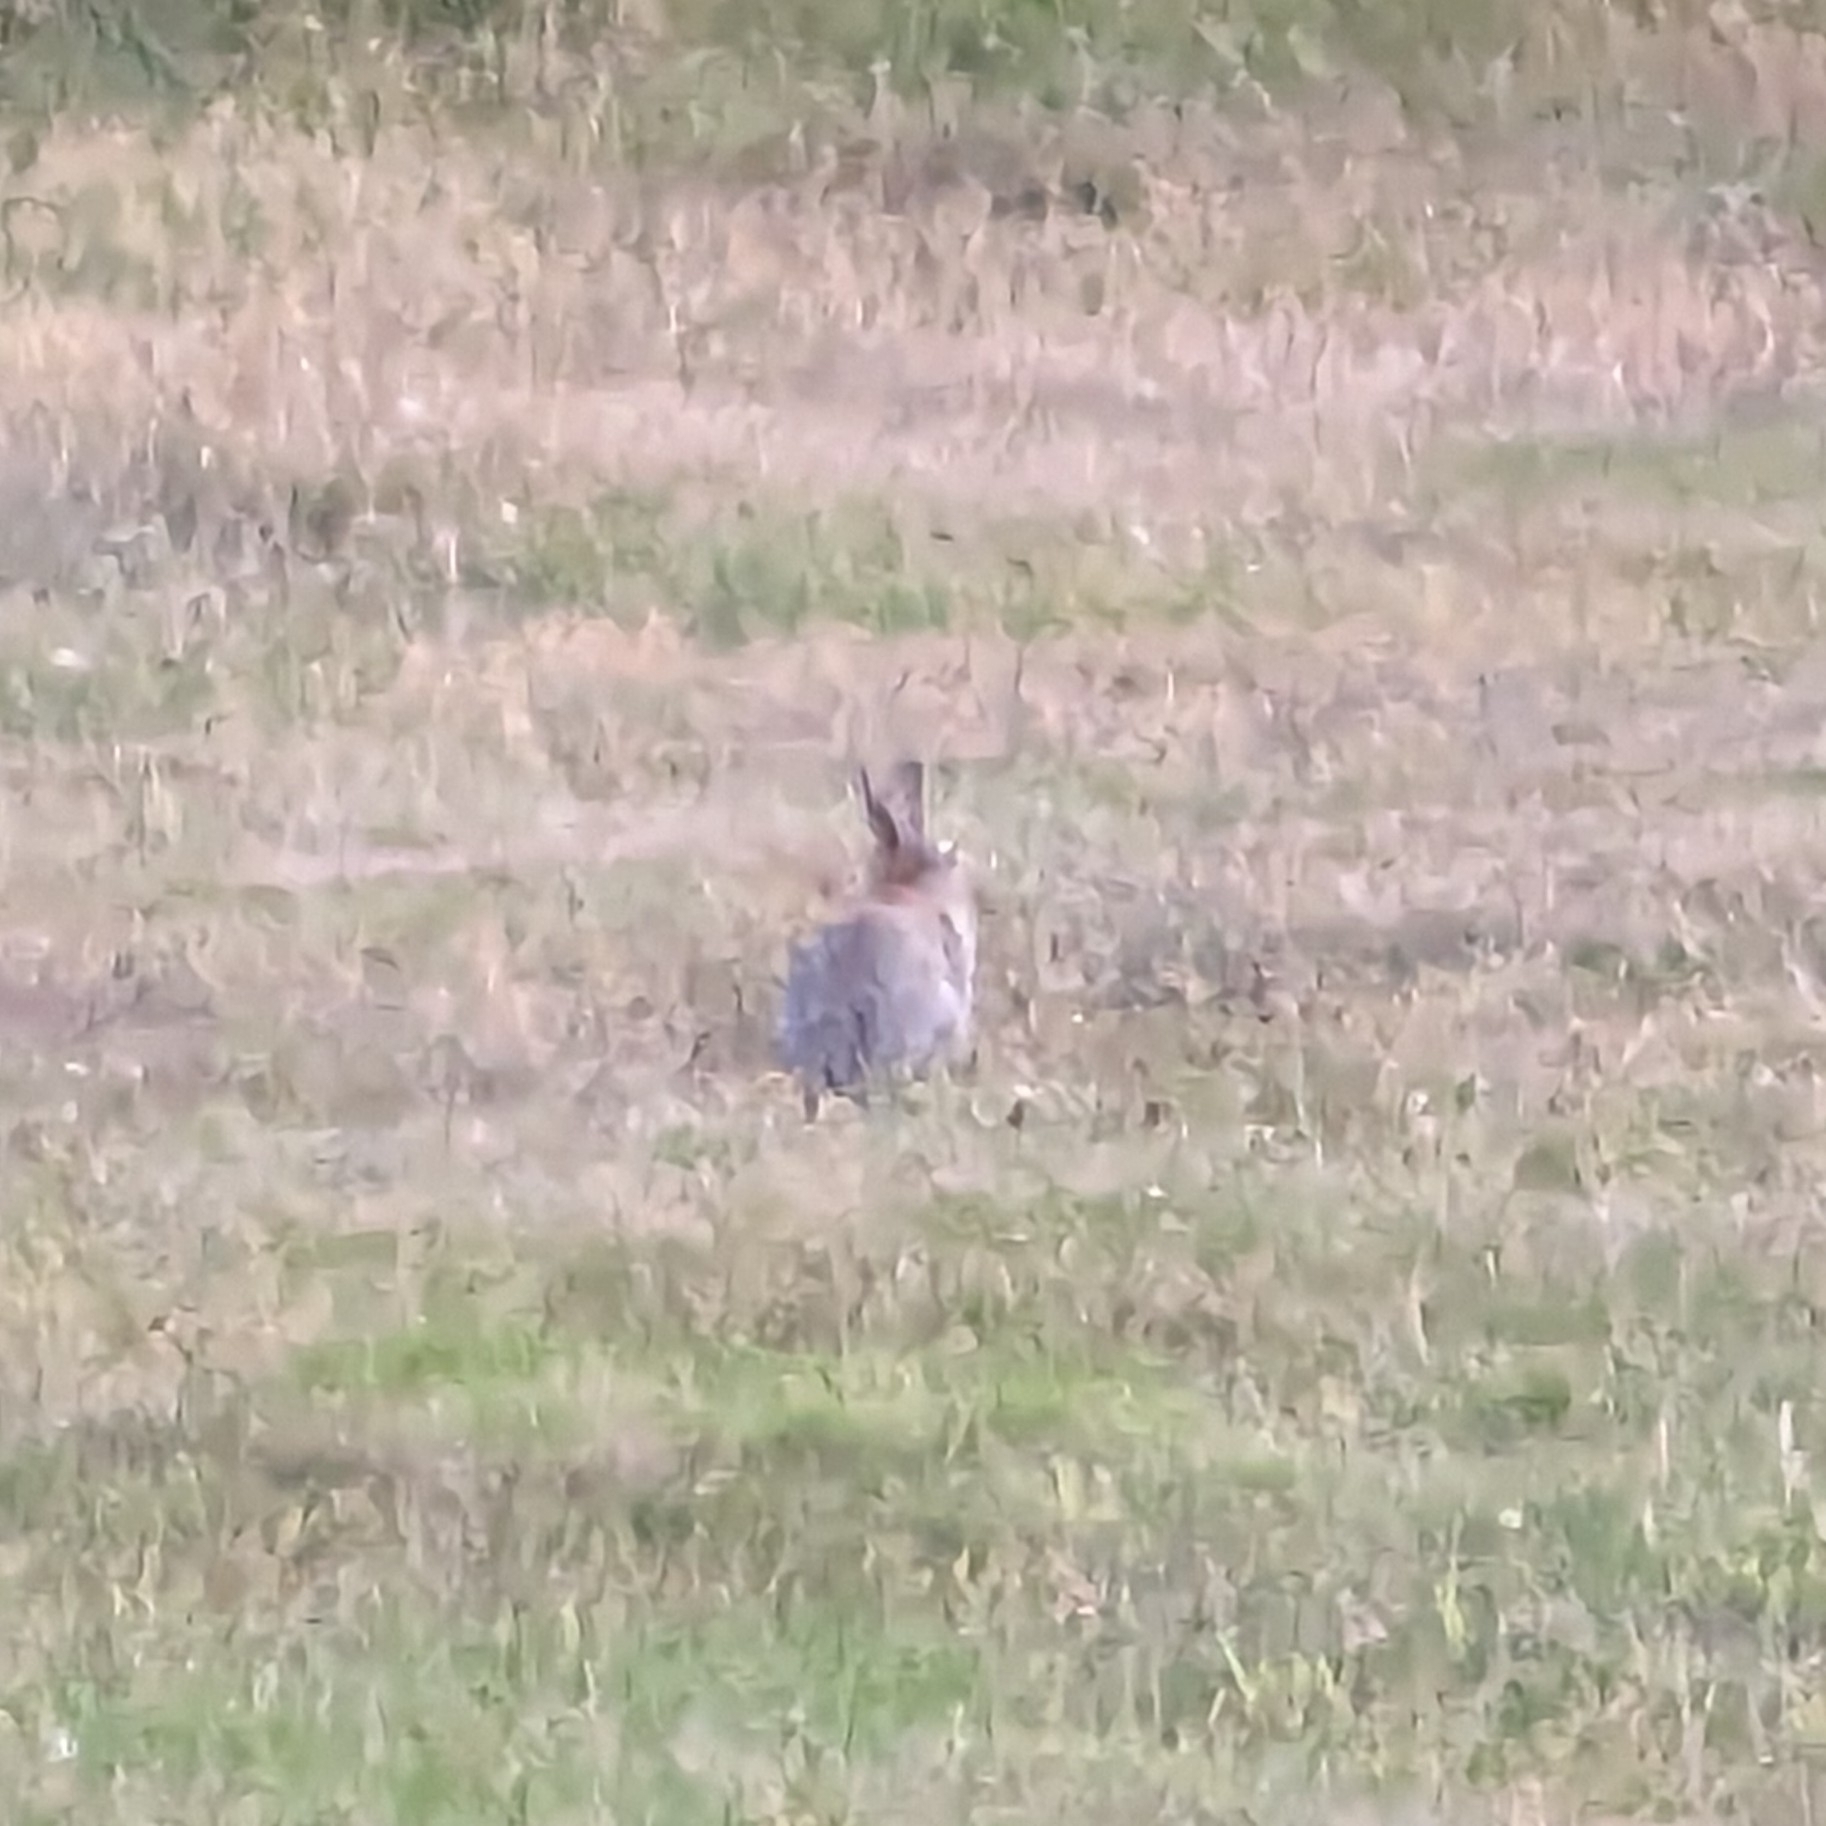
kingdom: Animalia
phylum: Chordata
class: Mammalia
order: Lagomorpha
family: Leporidae
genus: Sylvilagus
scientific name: Sylvilagus floridanus
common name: Eastern cottontail
